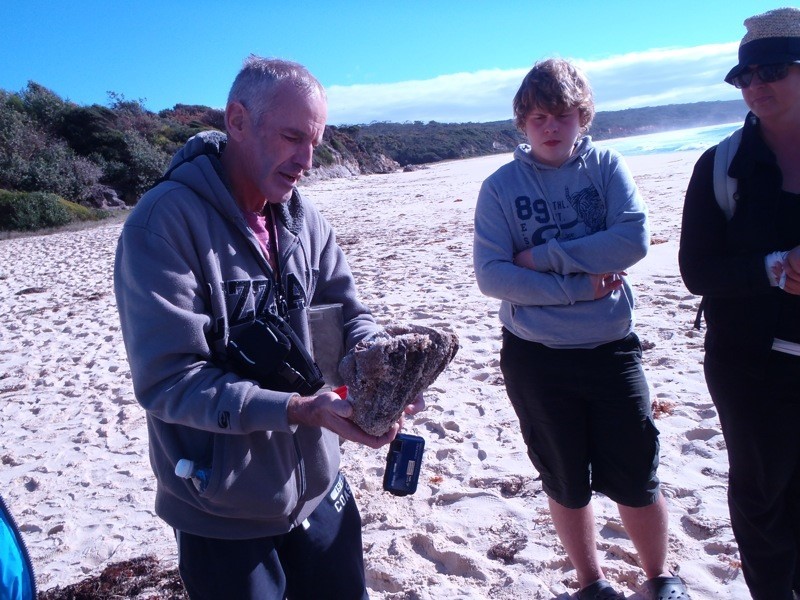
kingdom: Animalia
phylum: Chordata
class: Ascidiacea
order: Stolidobranchia
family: Pyuridae
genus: Pyura
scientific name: Pyura praeputialis
